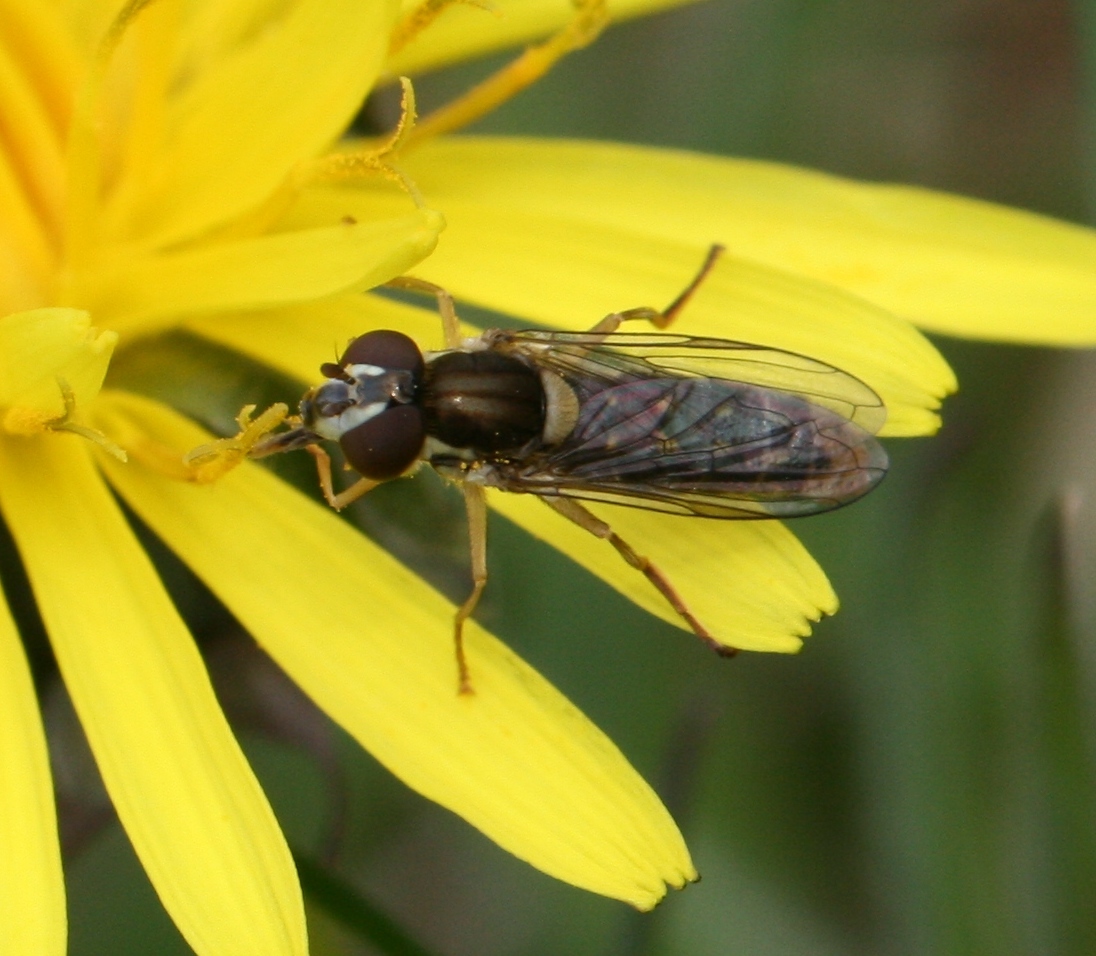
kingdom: Animalia
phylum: Arthropoda
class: Insecta
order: Diptera
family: Syrphidae
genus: Sphaerophoria
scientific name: Sphaerophoria
